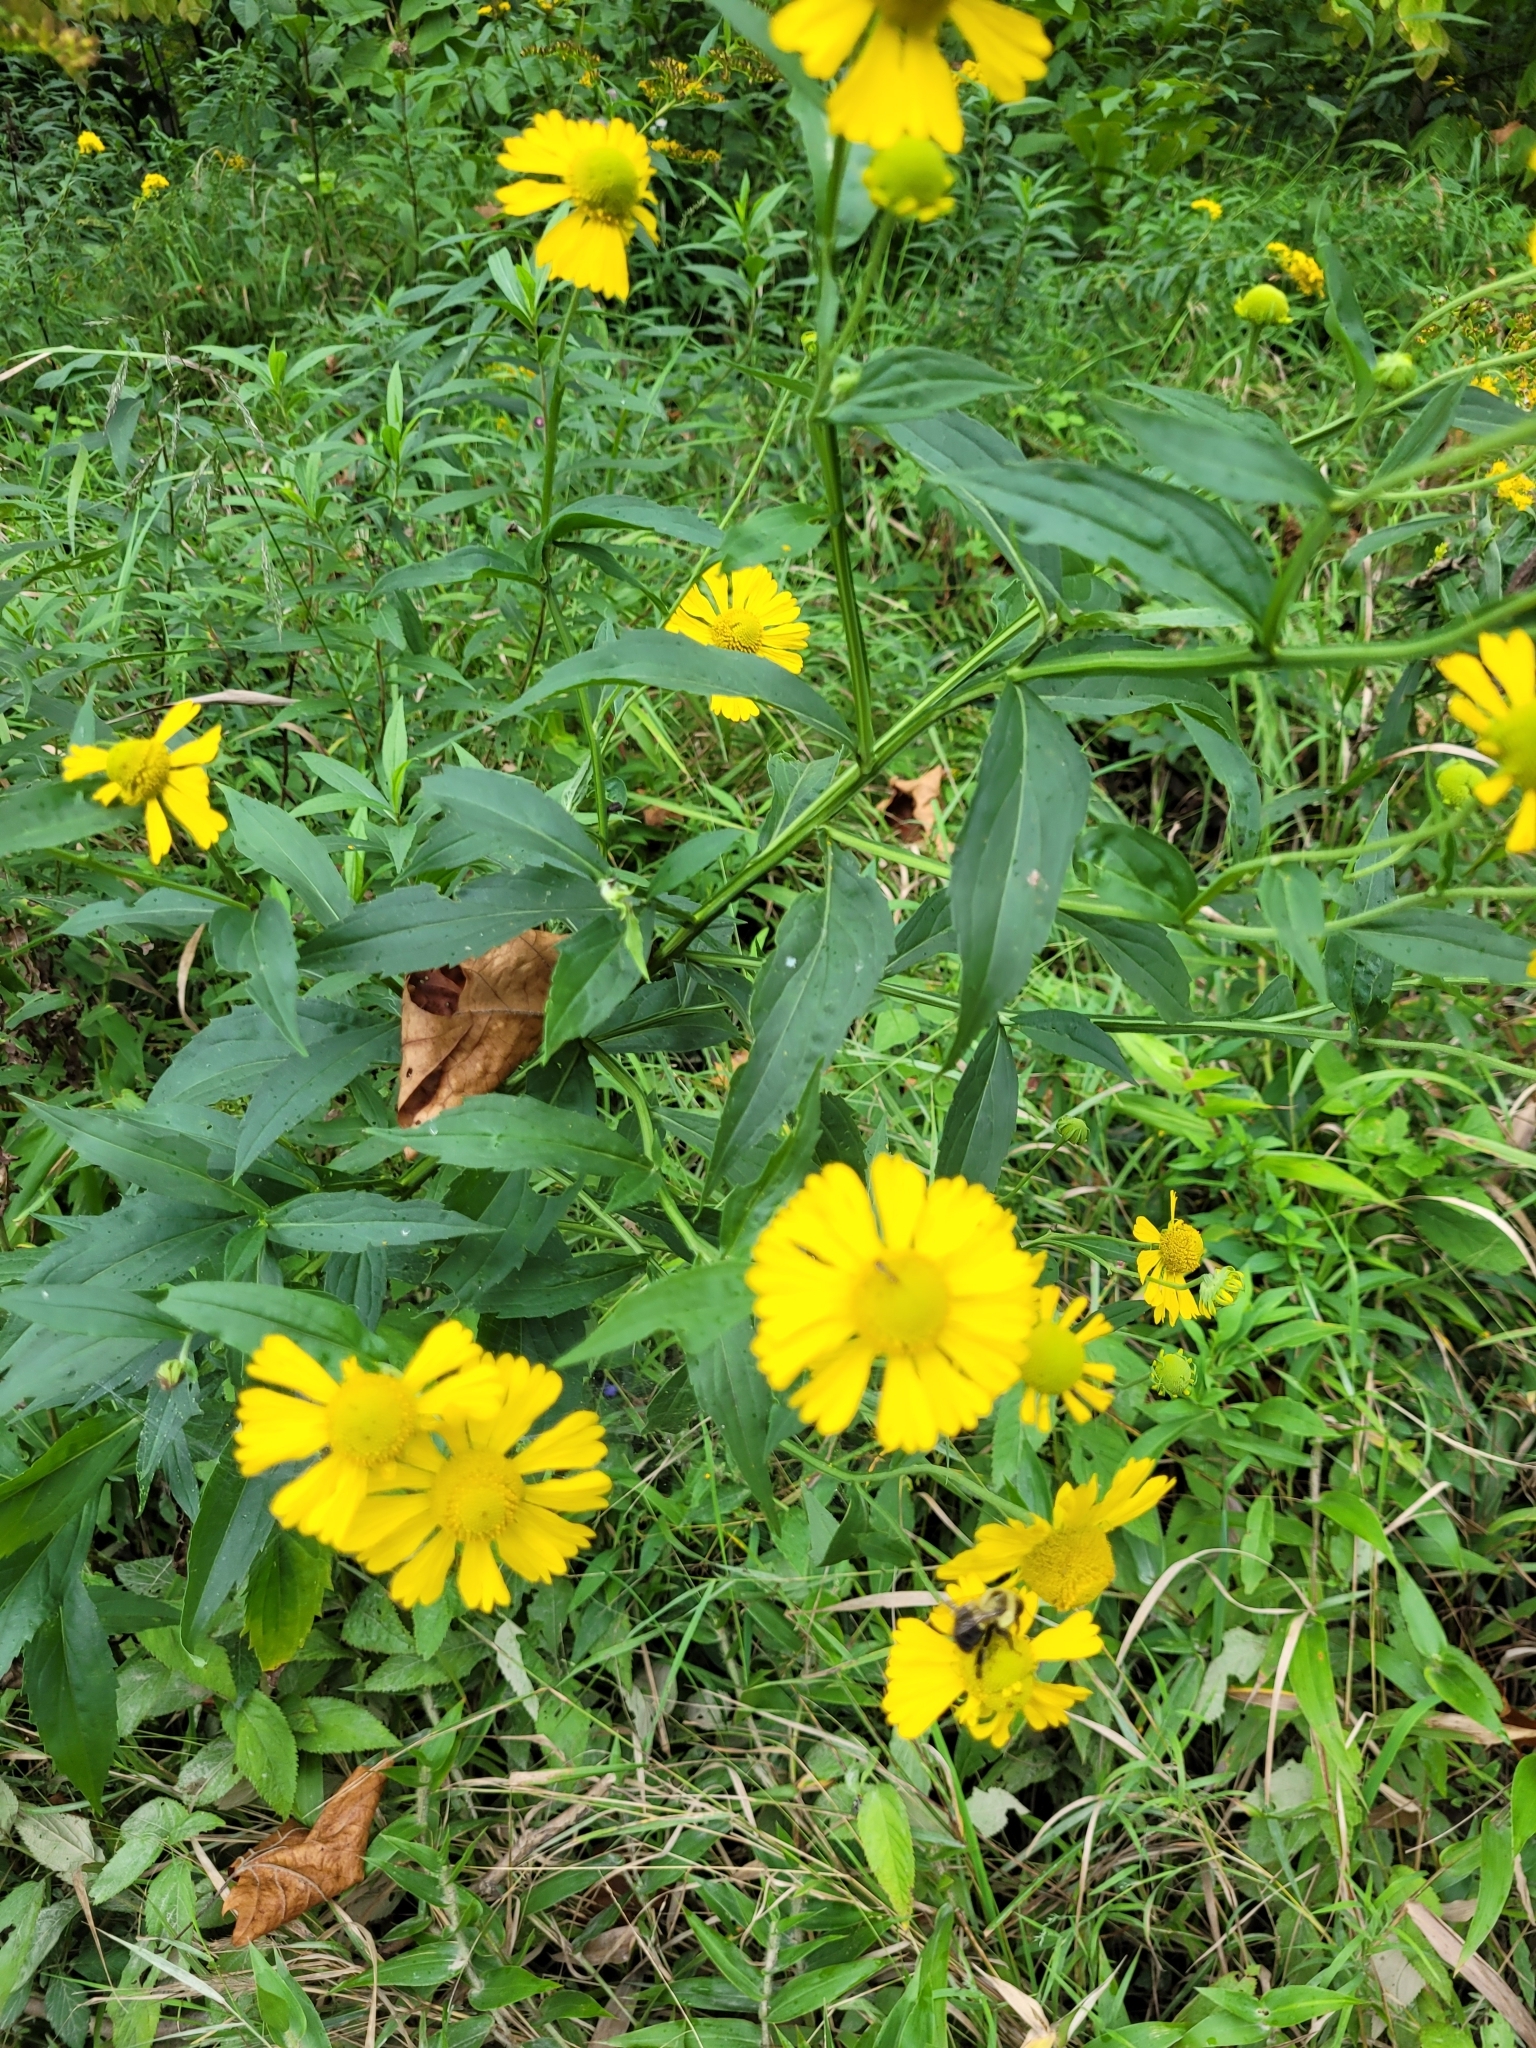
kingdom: Plantae
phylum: Tracheophyta
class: Magnoliopsida
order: Asterales
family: Asteraceae
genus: Helenium
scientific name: Helenium autumnale
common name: Sneezeweed
